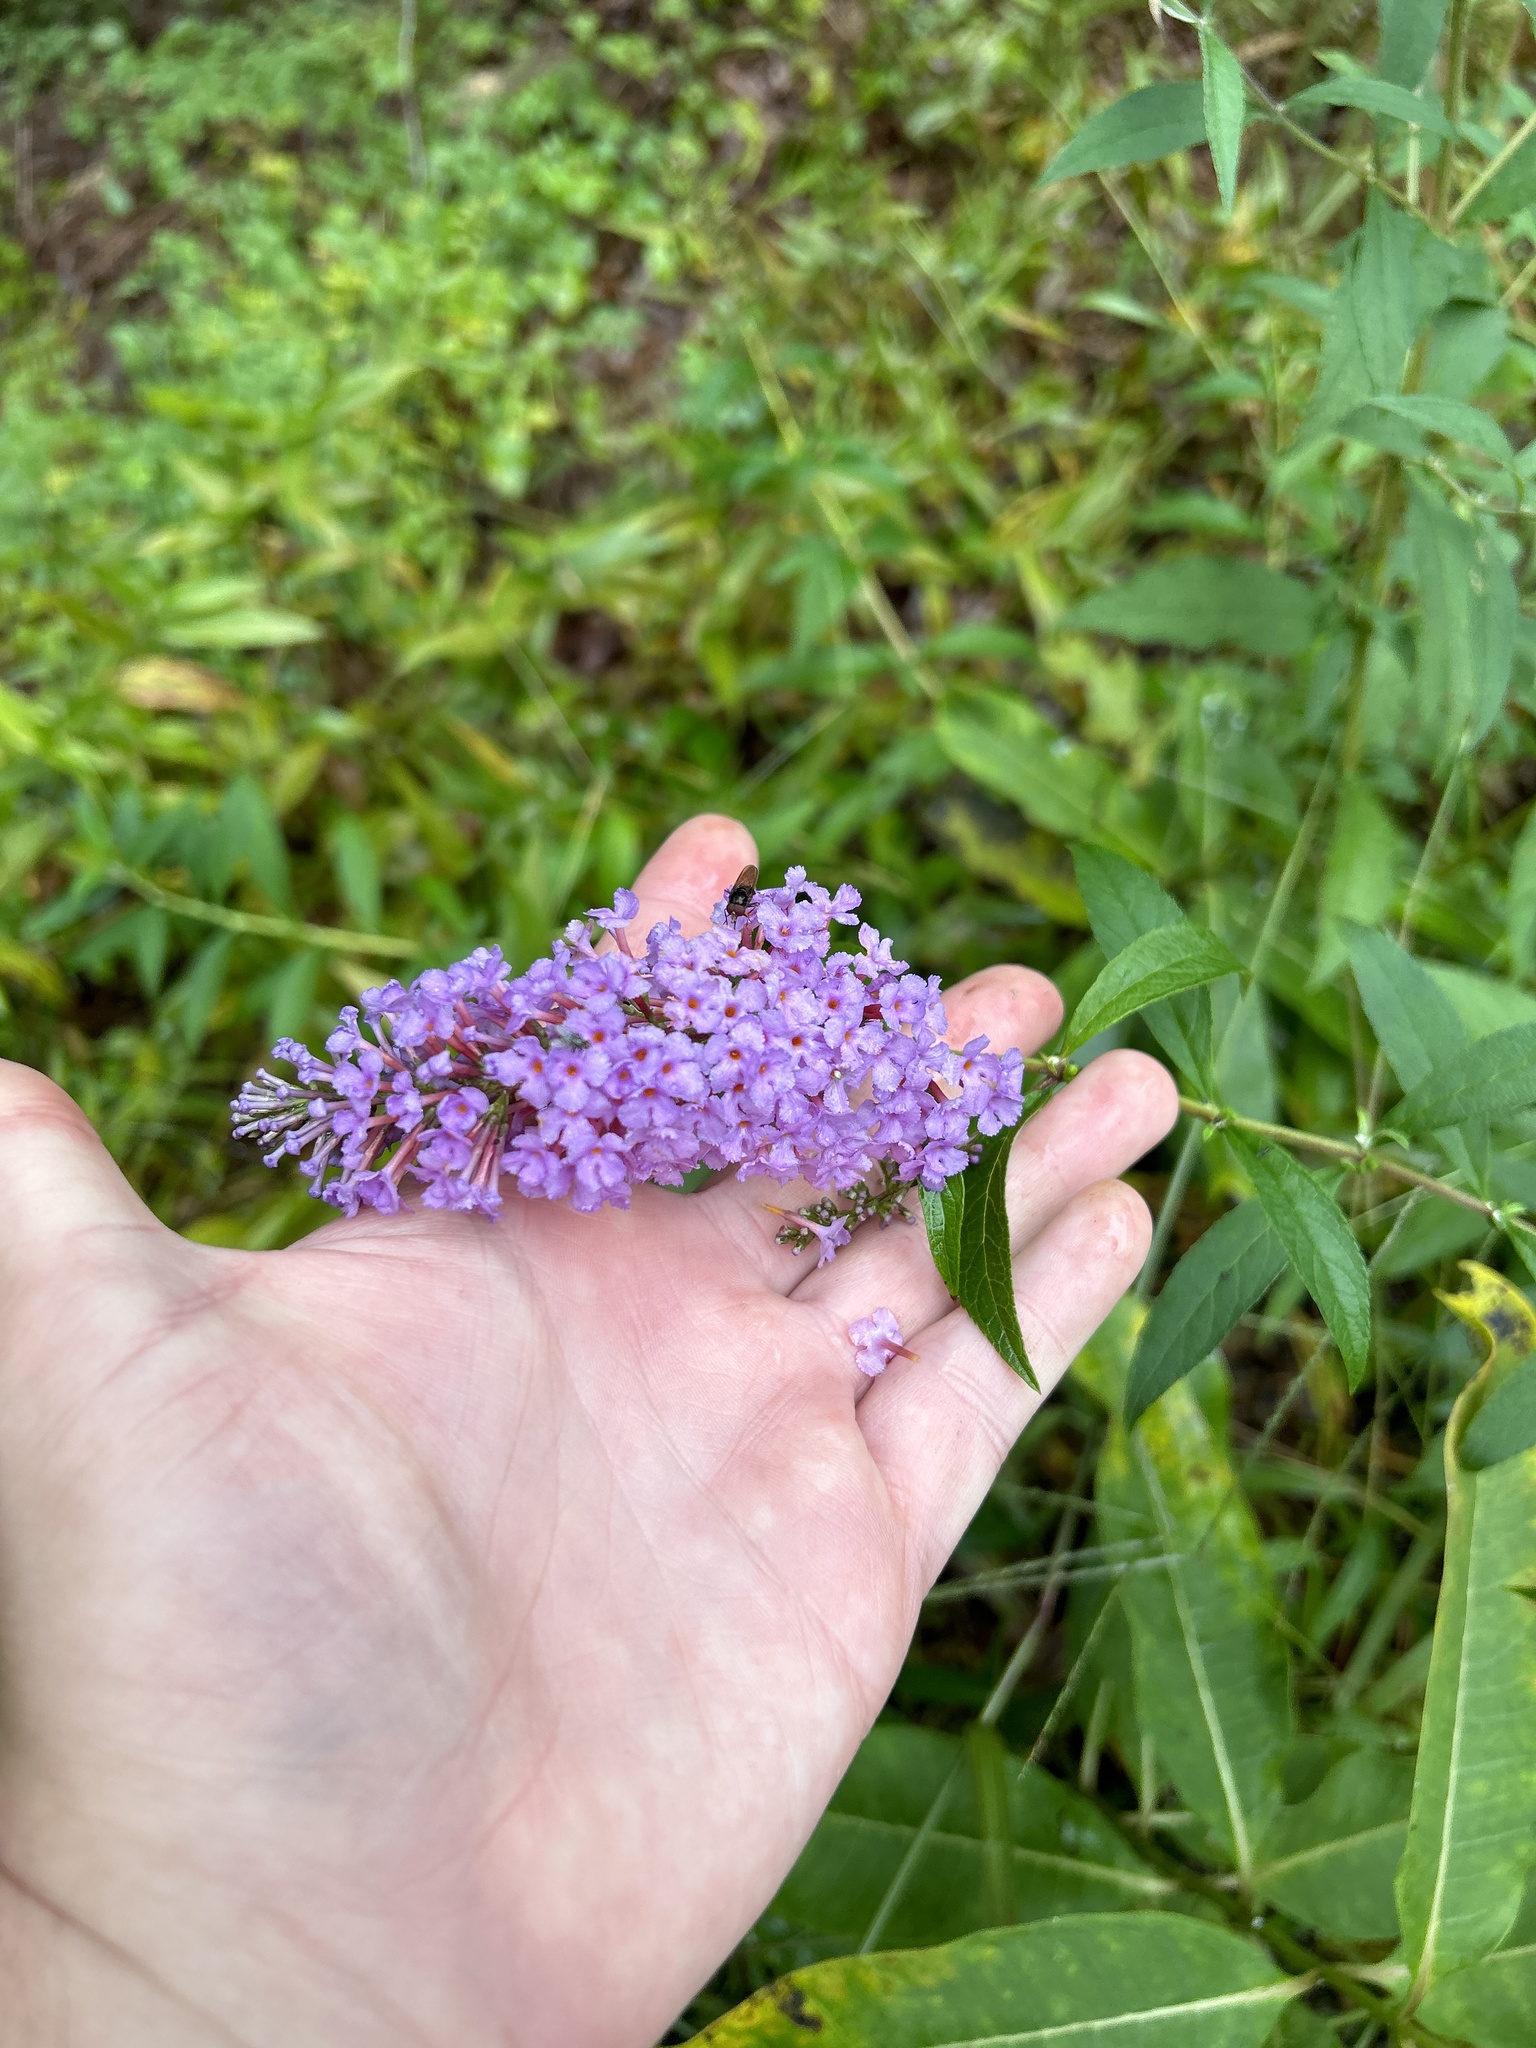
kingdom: Plantae
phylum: Tracheophyta
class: Magnoliopsida
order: Lamiales
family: Scrophulariaceae
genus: Buddleja
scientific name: Buddleja davidii
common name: Butterfly-bush
